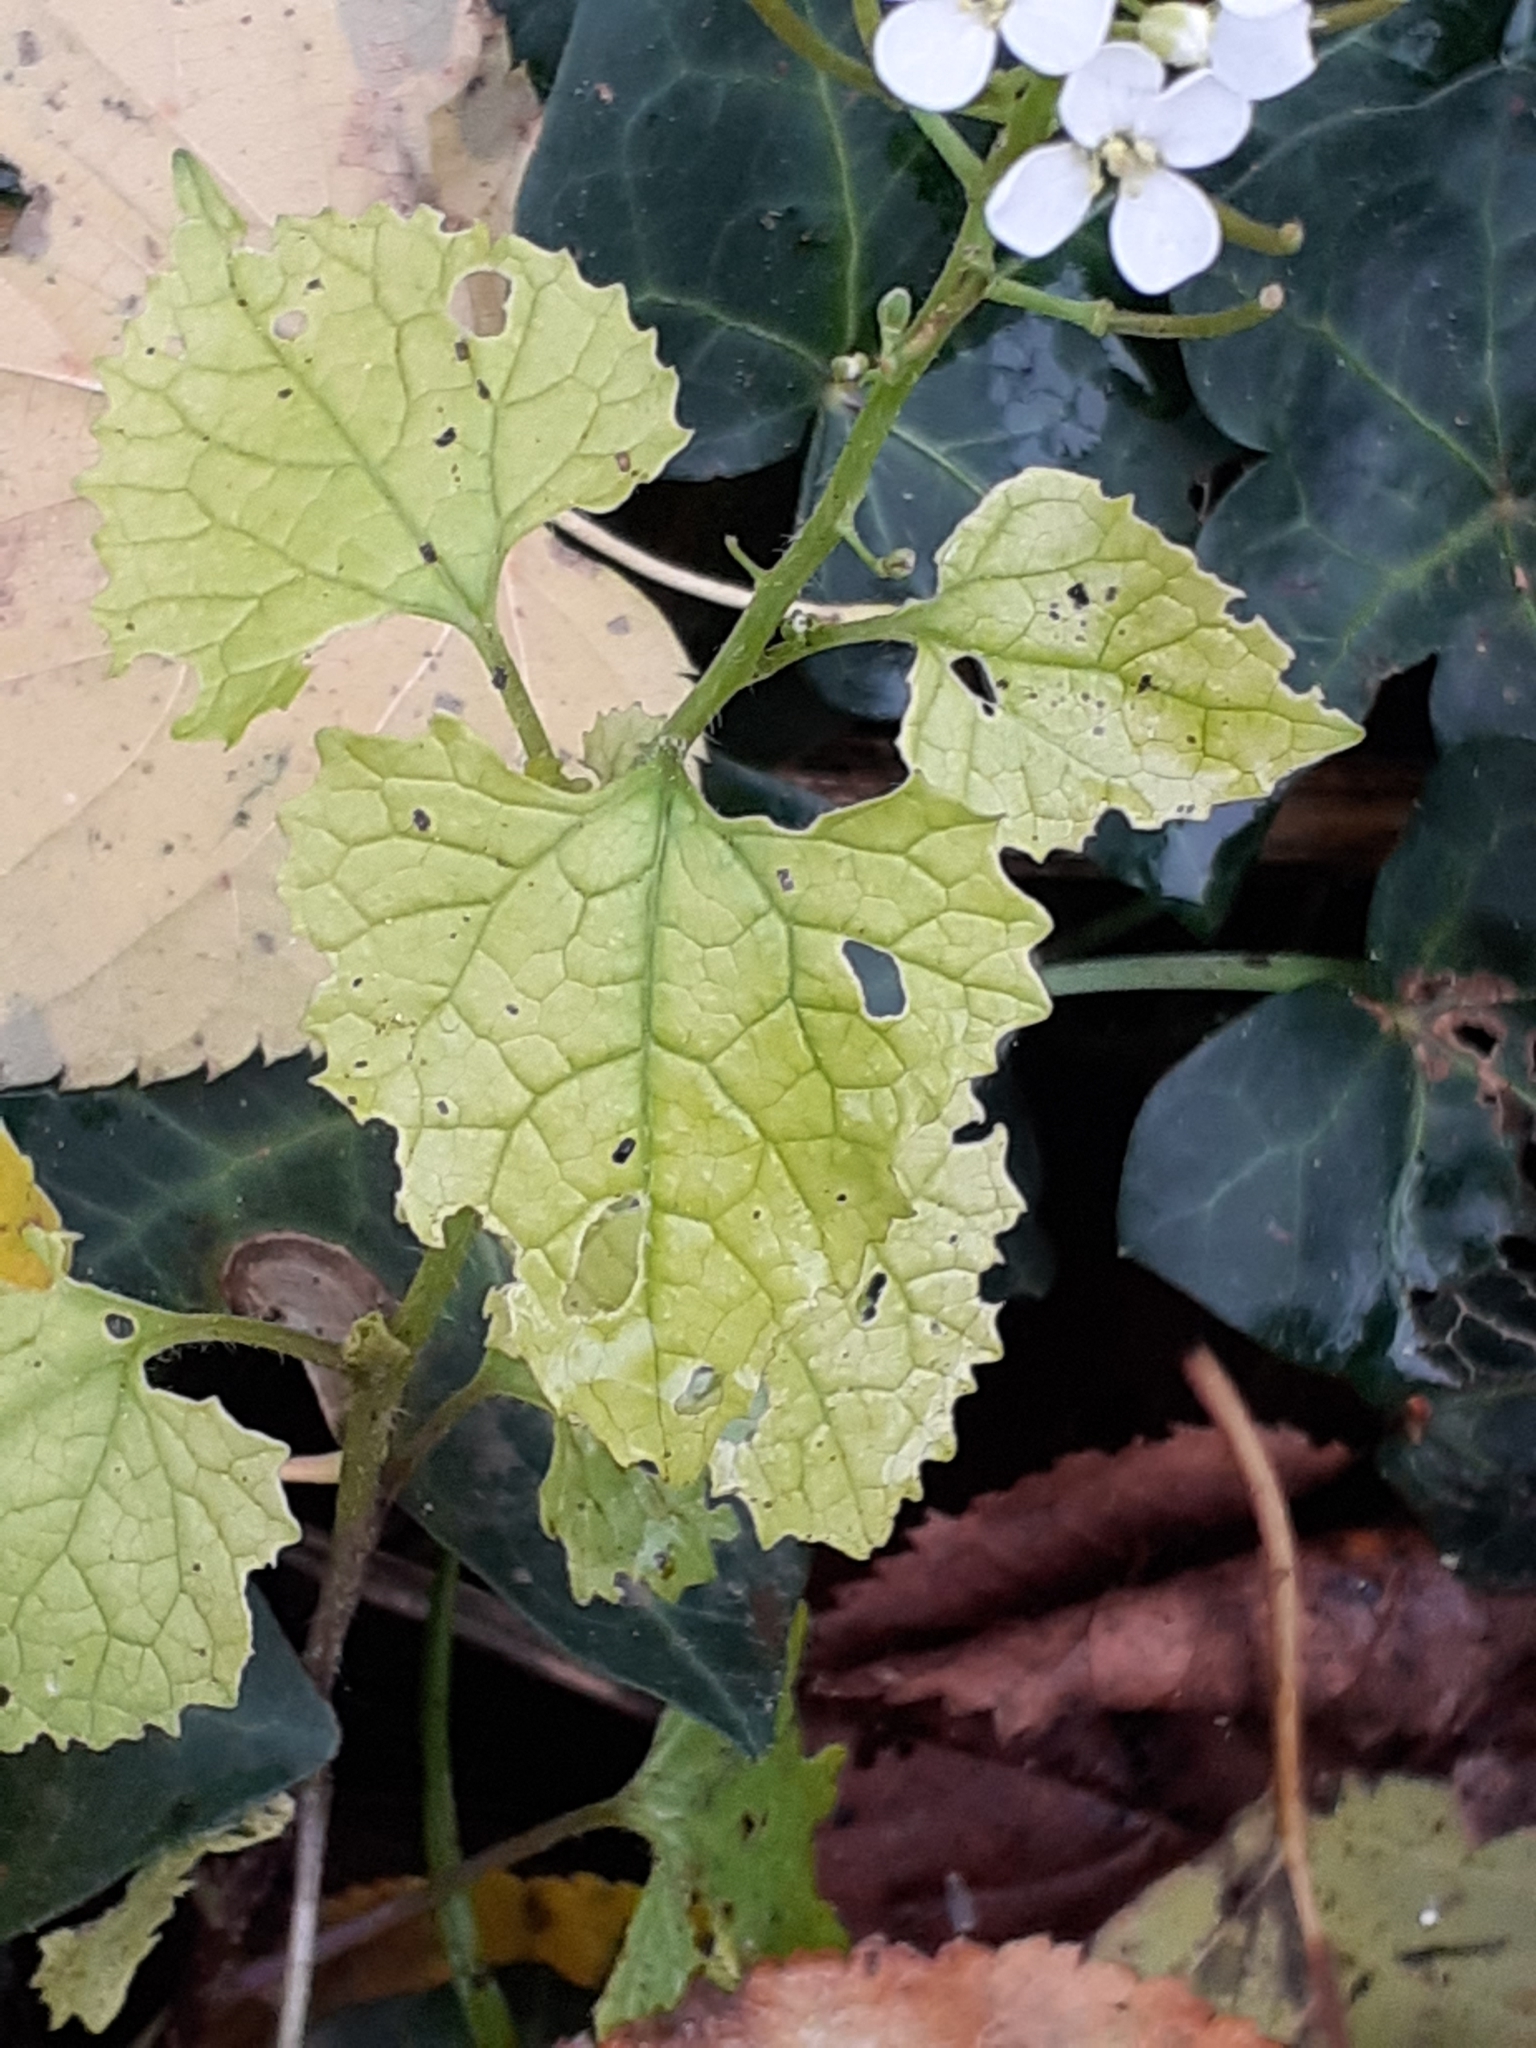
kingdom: Plantae
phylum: Tracheophyta
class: Magnoliopsida
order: Brassicales
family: Brassicaceae
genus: Alliaria
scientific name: Alliaria petiolata
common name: Garlic mustard
